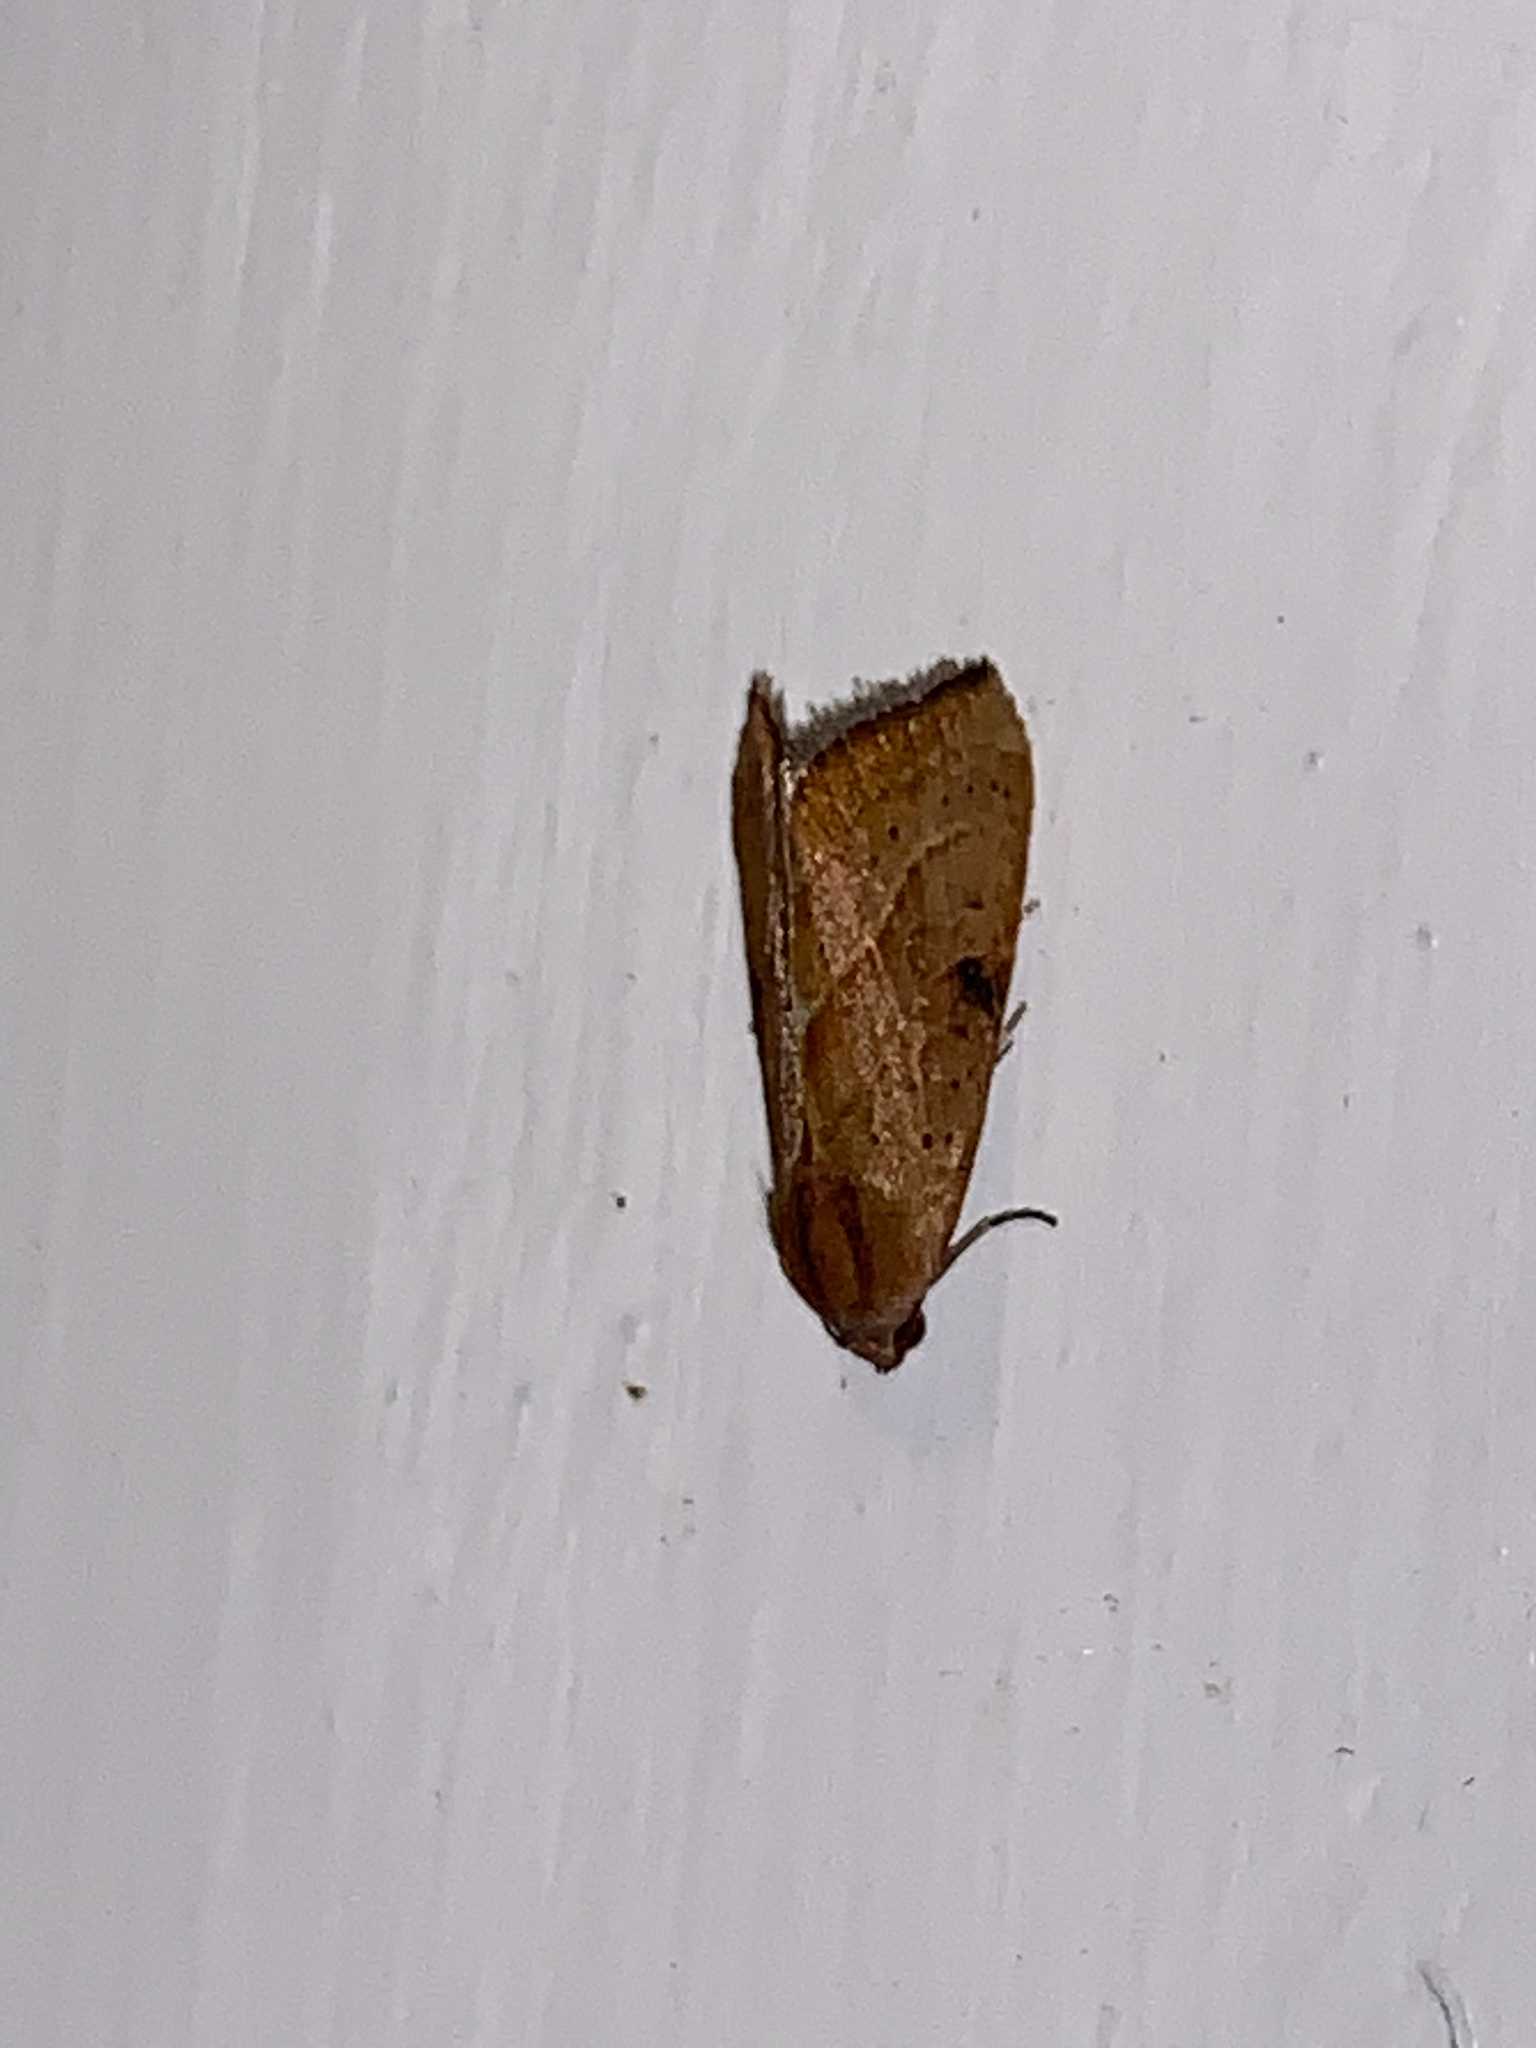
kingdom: Animalia
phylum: Arthropoda
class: Insecta
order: Lepidoptera
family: Noctuidae
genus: Galgula
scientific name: Galgula partita
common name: Wedgeling
